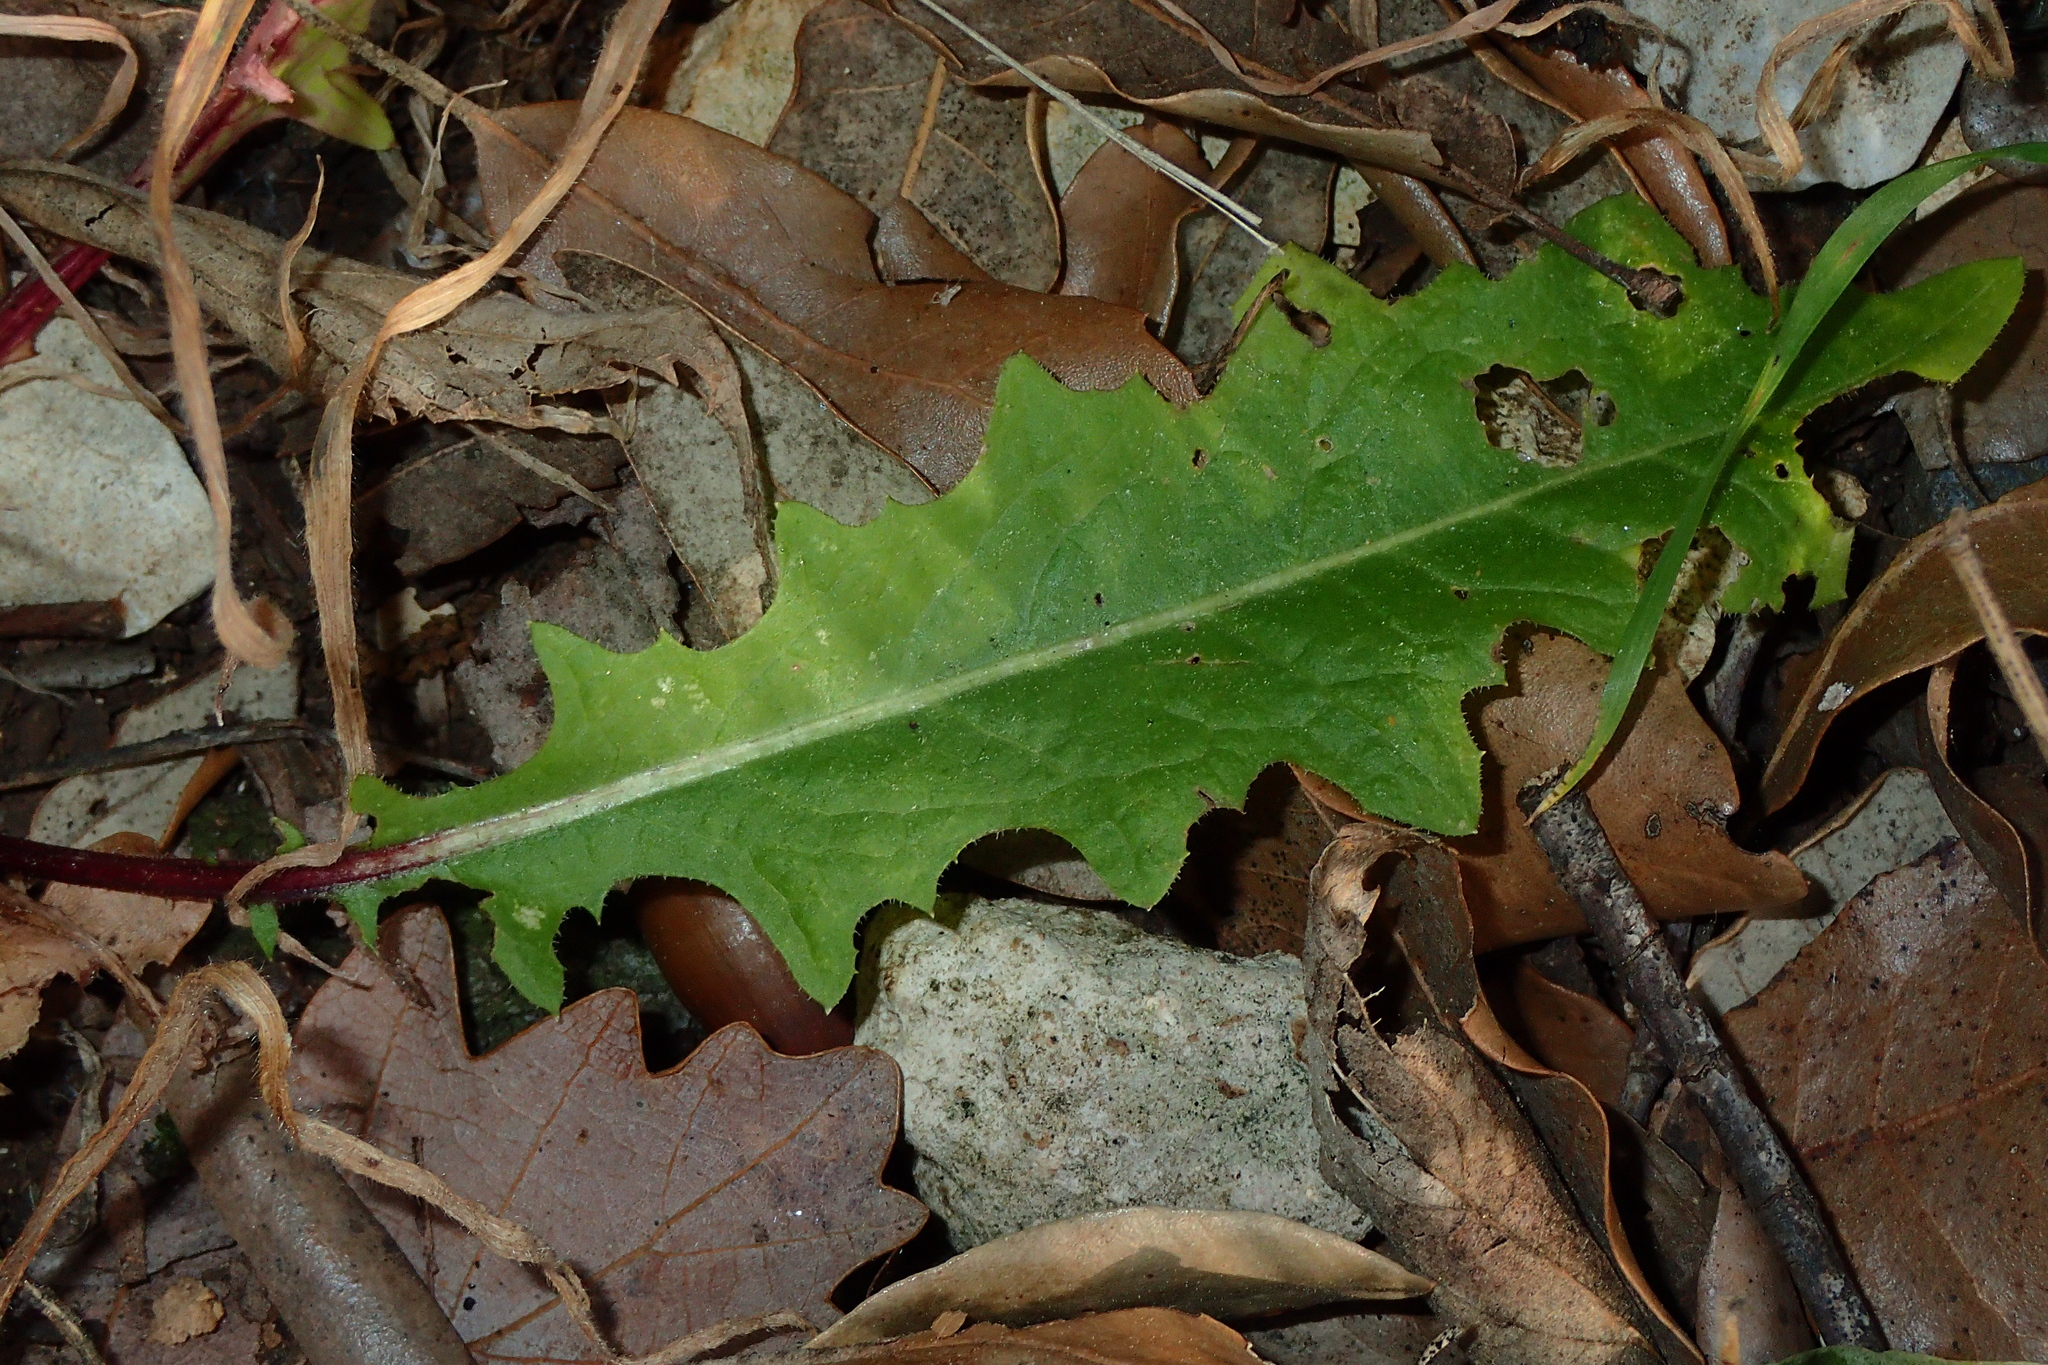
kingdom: Plantae
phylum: Tracheophyta
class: Magnoliopsida
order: Asterales
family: Asteraceae
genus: Crepis
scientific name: Crepis vesicaria
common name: Beaked hawksbeard
